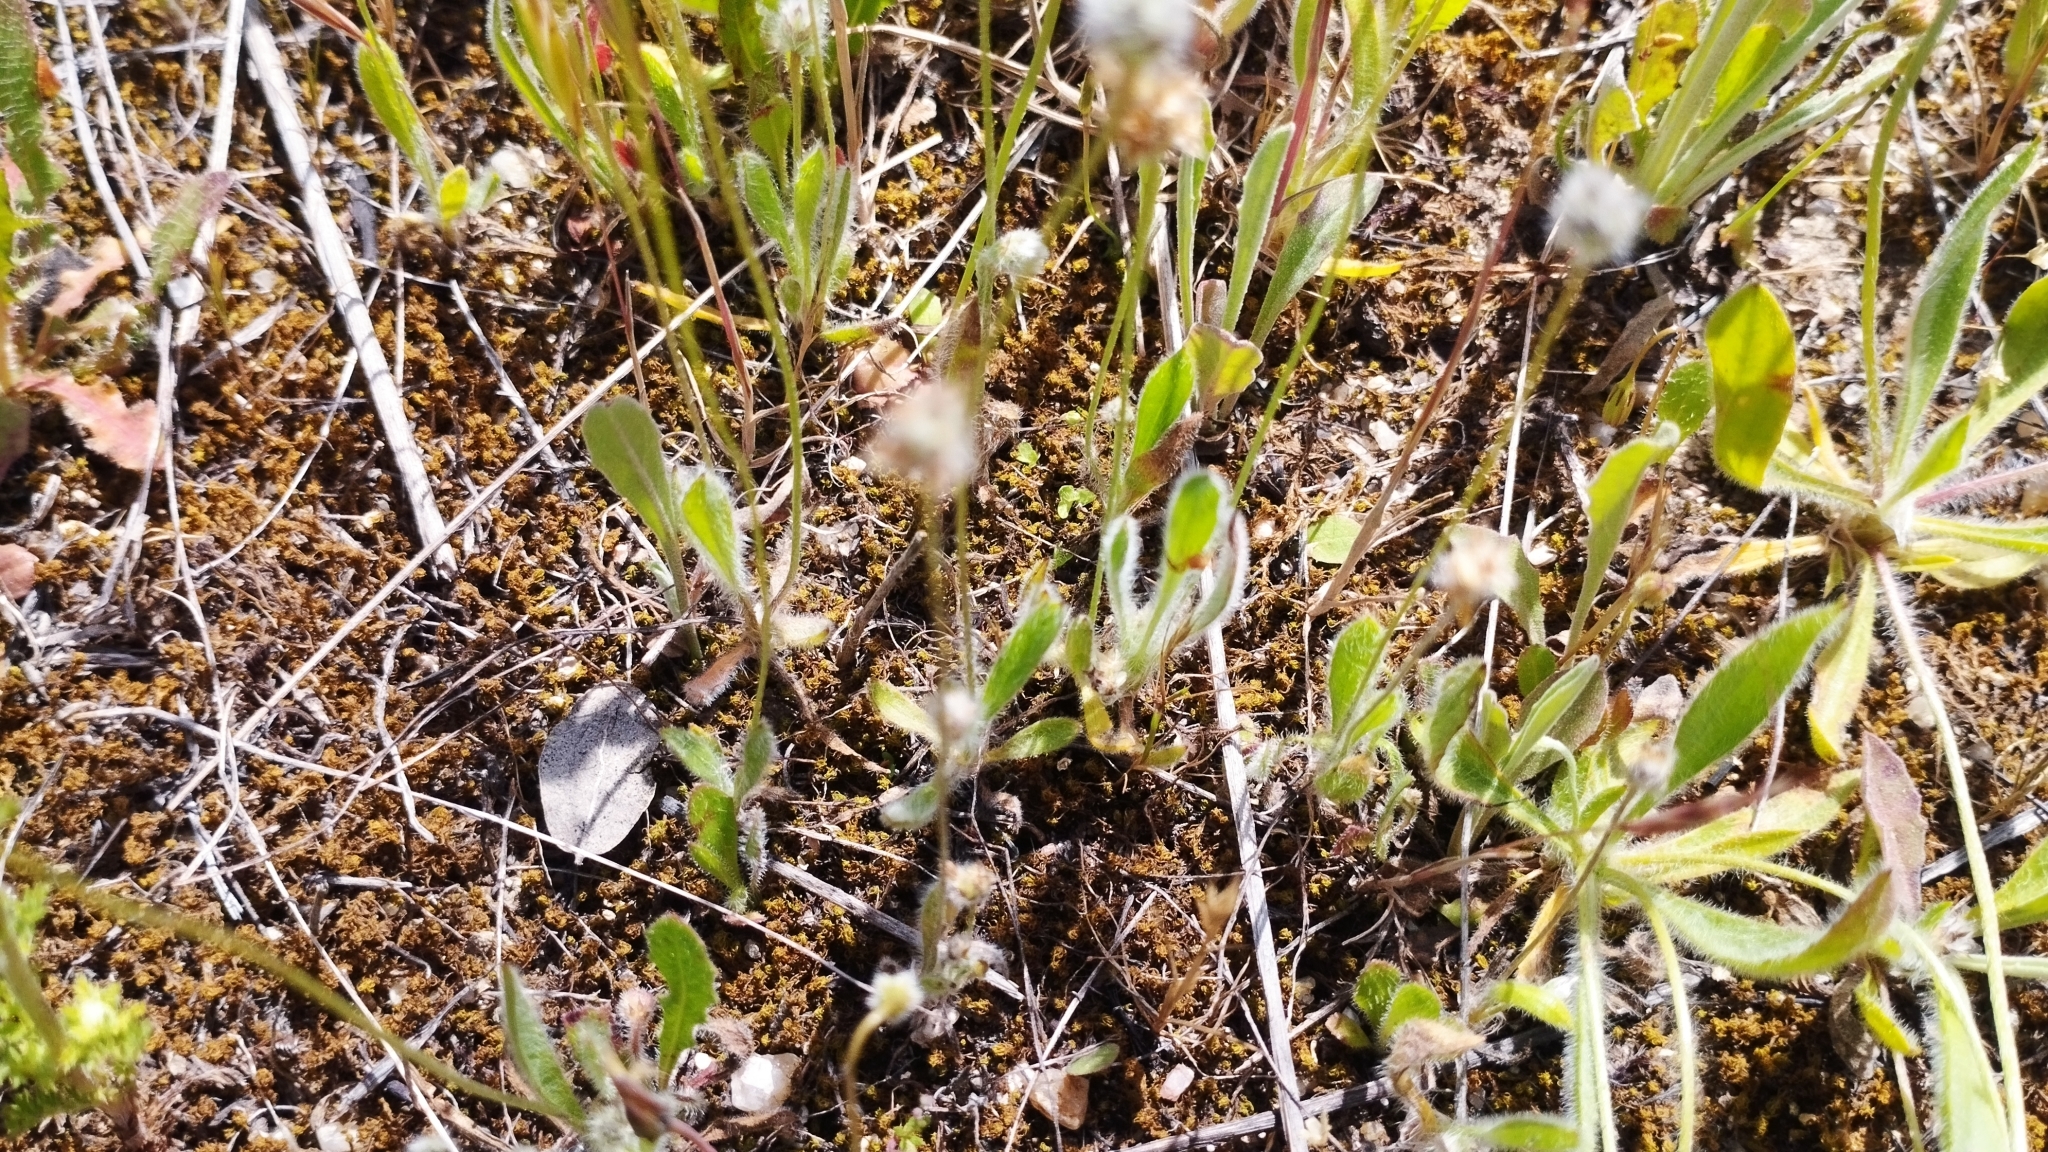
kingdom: Plantae
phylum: Tracheophyta
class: Magnoliopsida
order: Lamiales
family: Plantaginaceae
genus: Plantago
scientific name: Plantago lagopus
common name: Hare-foot plantain
